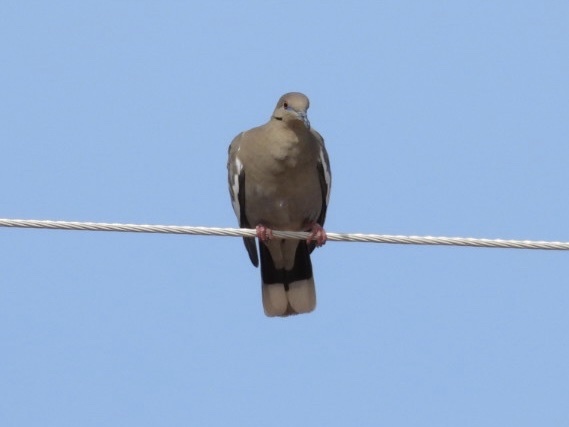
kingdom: Animalia
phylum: Chordata
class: Aves
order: Columbiformes
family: Columbidae
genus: Zenaida
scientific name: Zenaida asiatica
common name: White-winged dove
